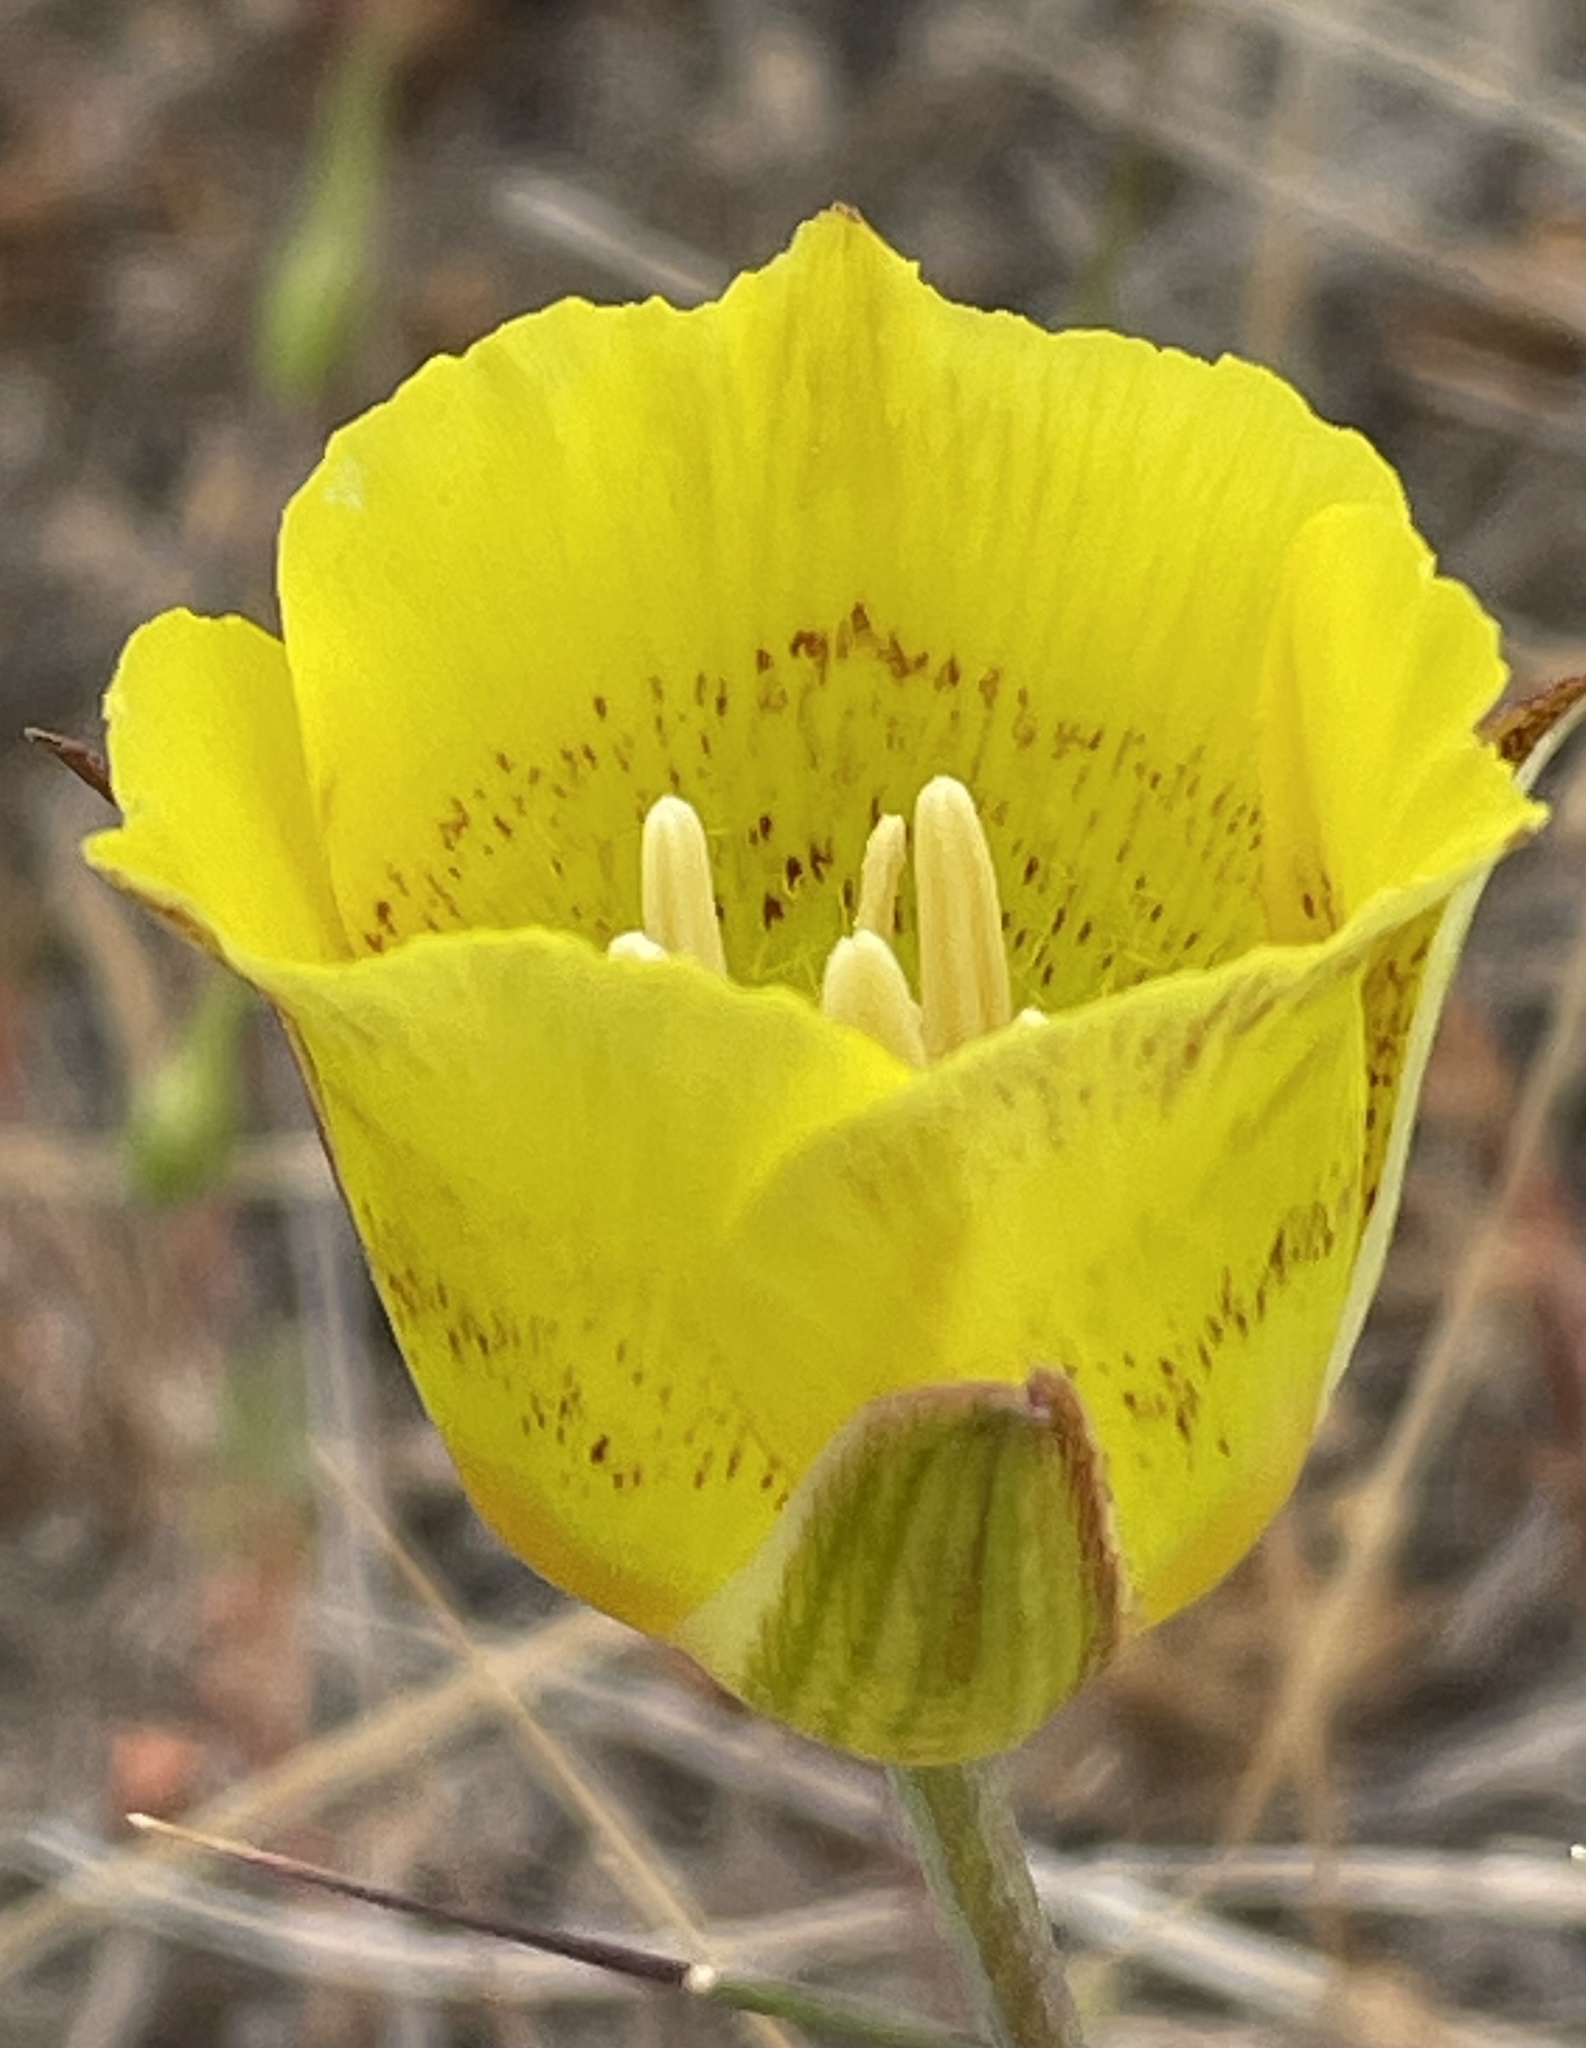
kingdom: Plantae
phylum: Tracheophyta
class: Liliopsida
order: Liliales
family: Liliaceae
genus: Calochortus
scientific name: Calochortus luteus
